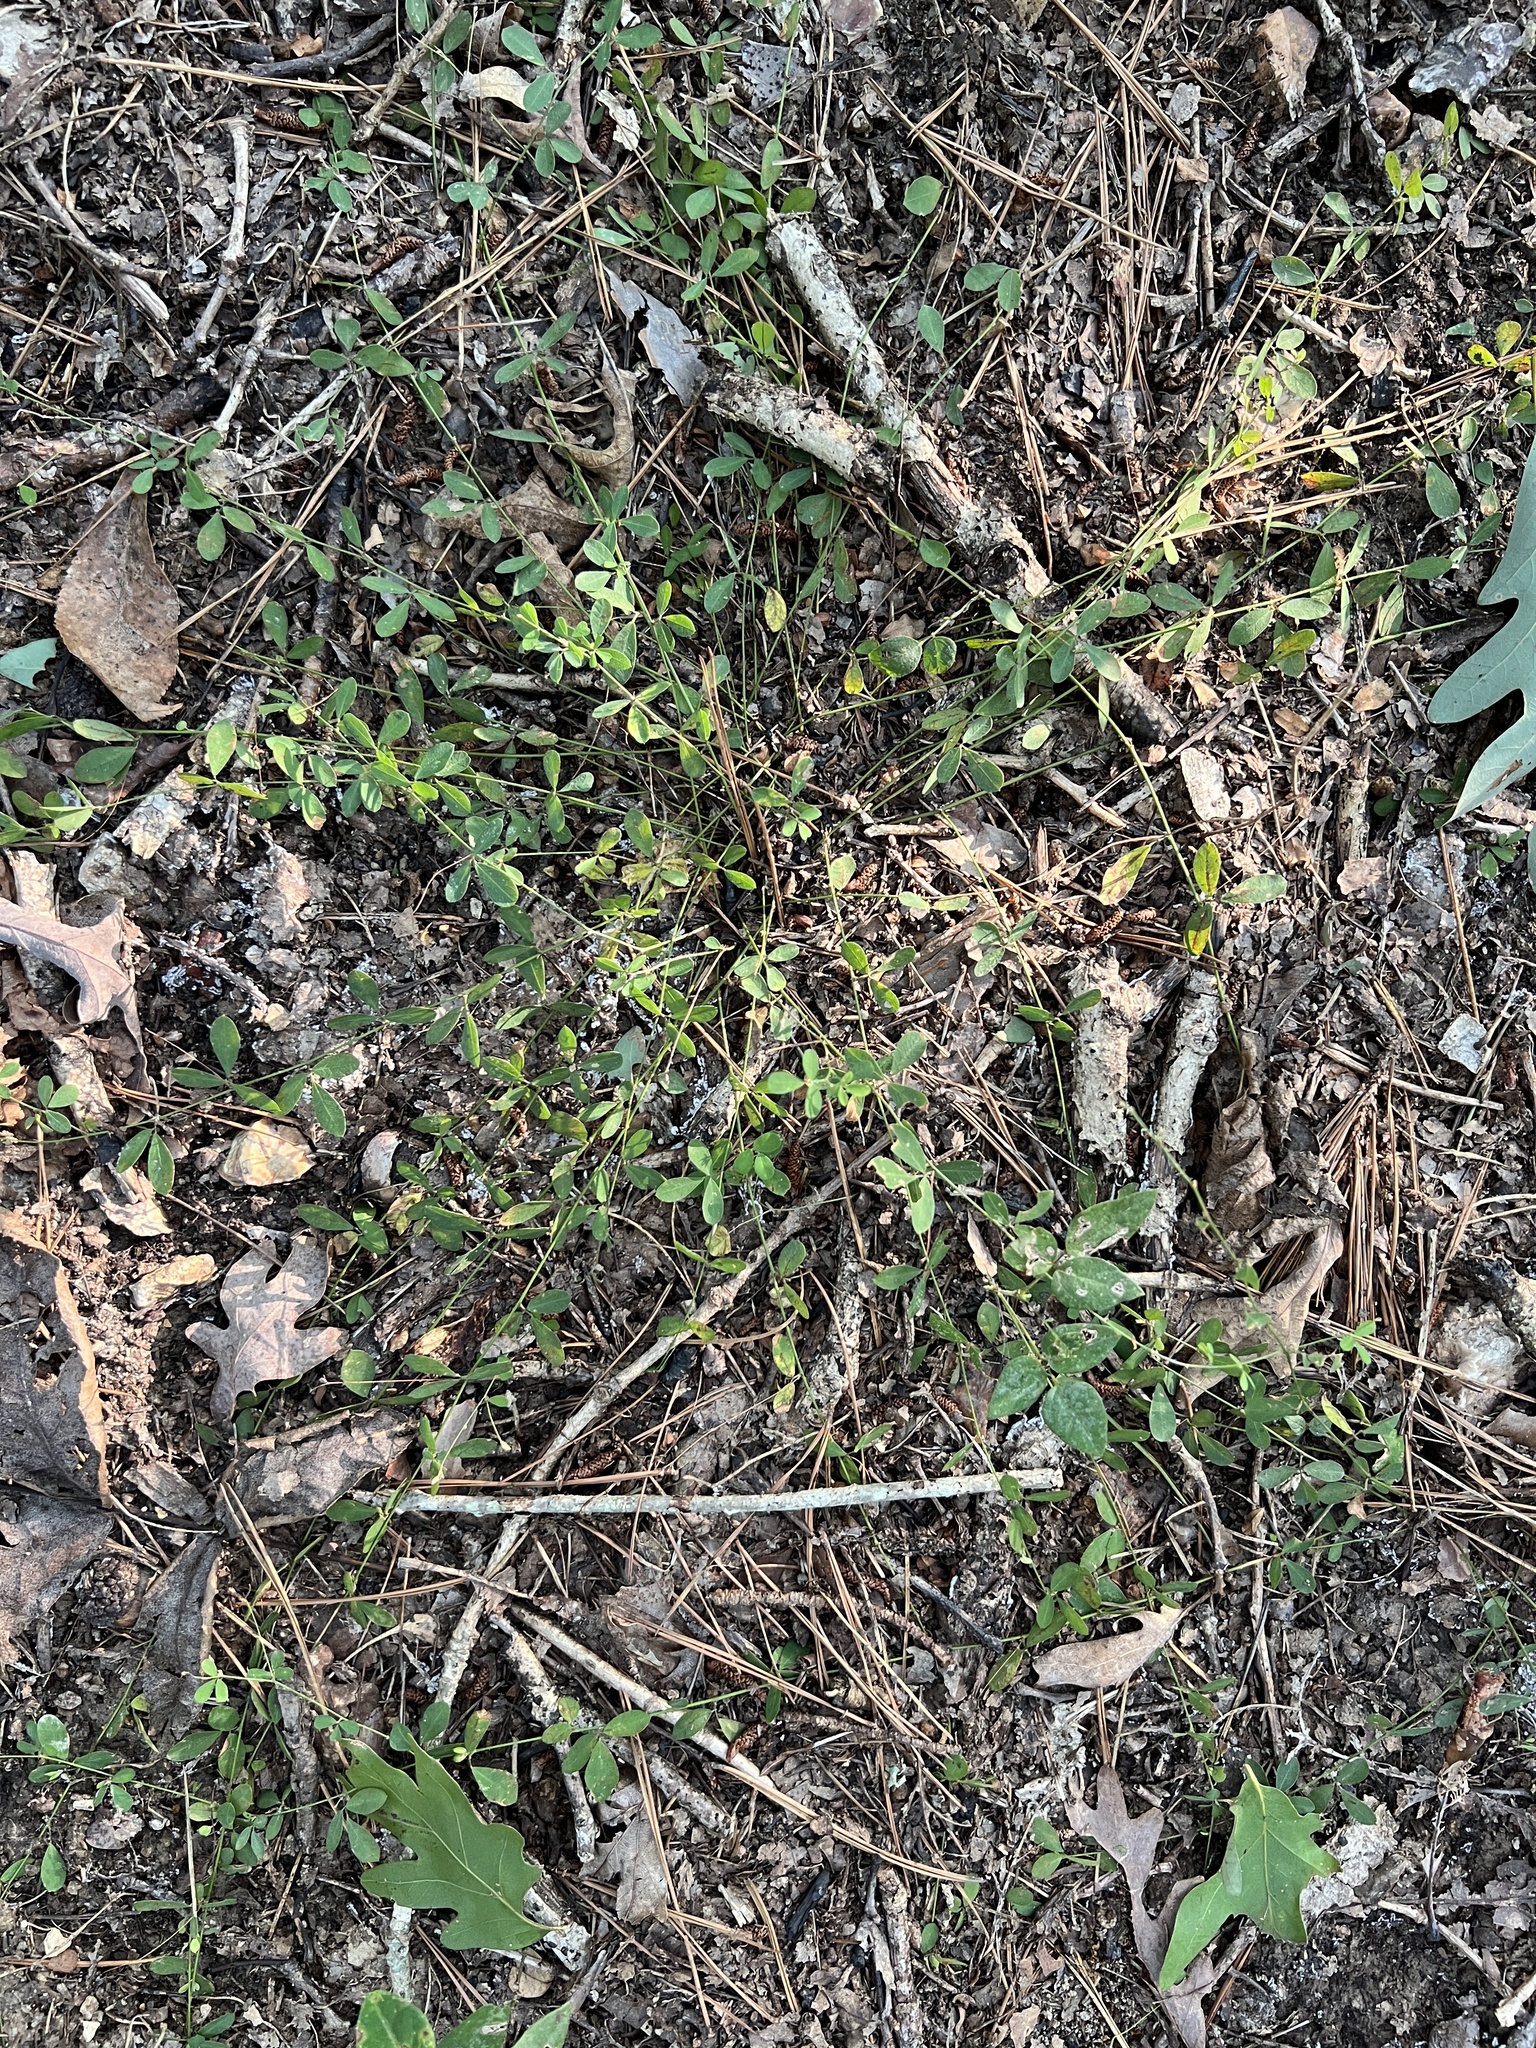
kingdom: Plantae
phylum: Tracheophyta
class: Magnoliopsida
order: Fabales
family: Fabaceae
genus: Lespedeza
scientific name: Lespedeza repens
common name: Creeping bush-clover
